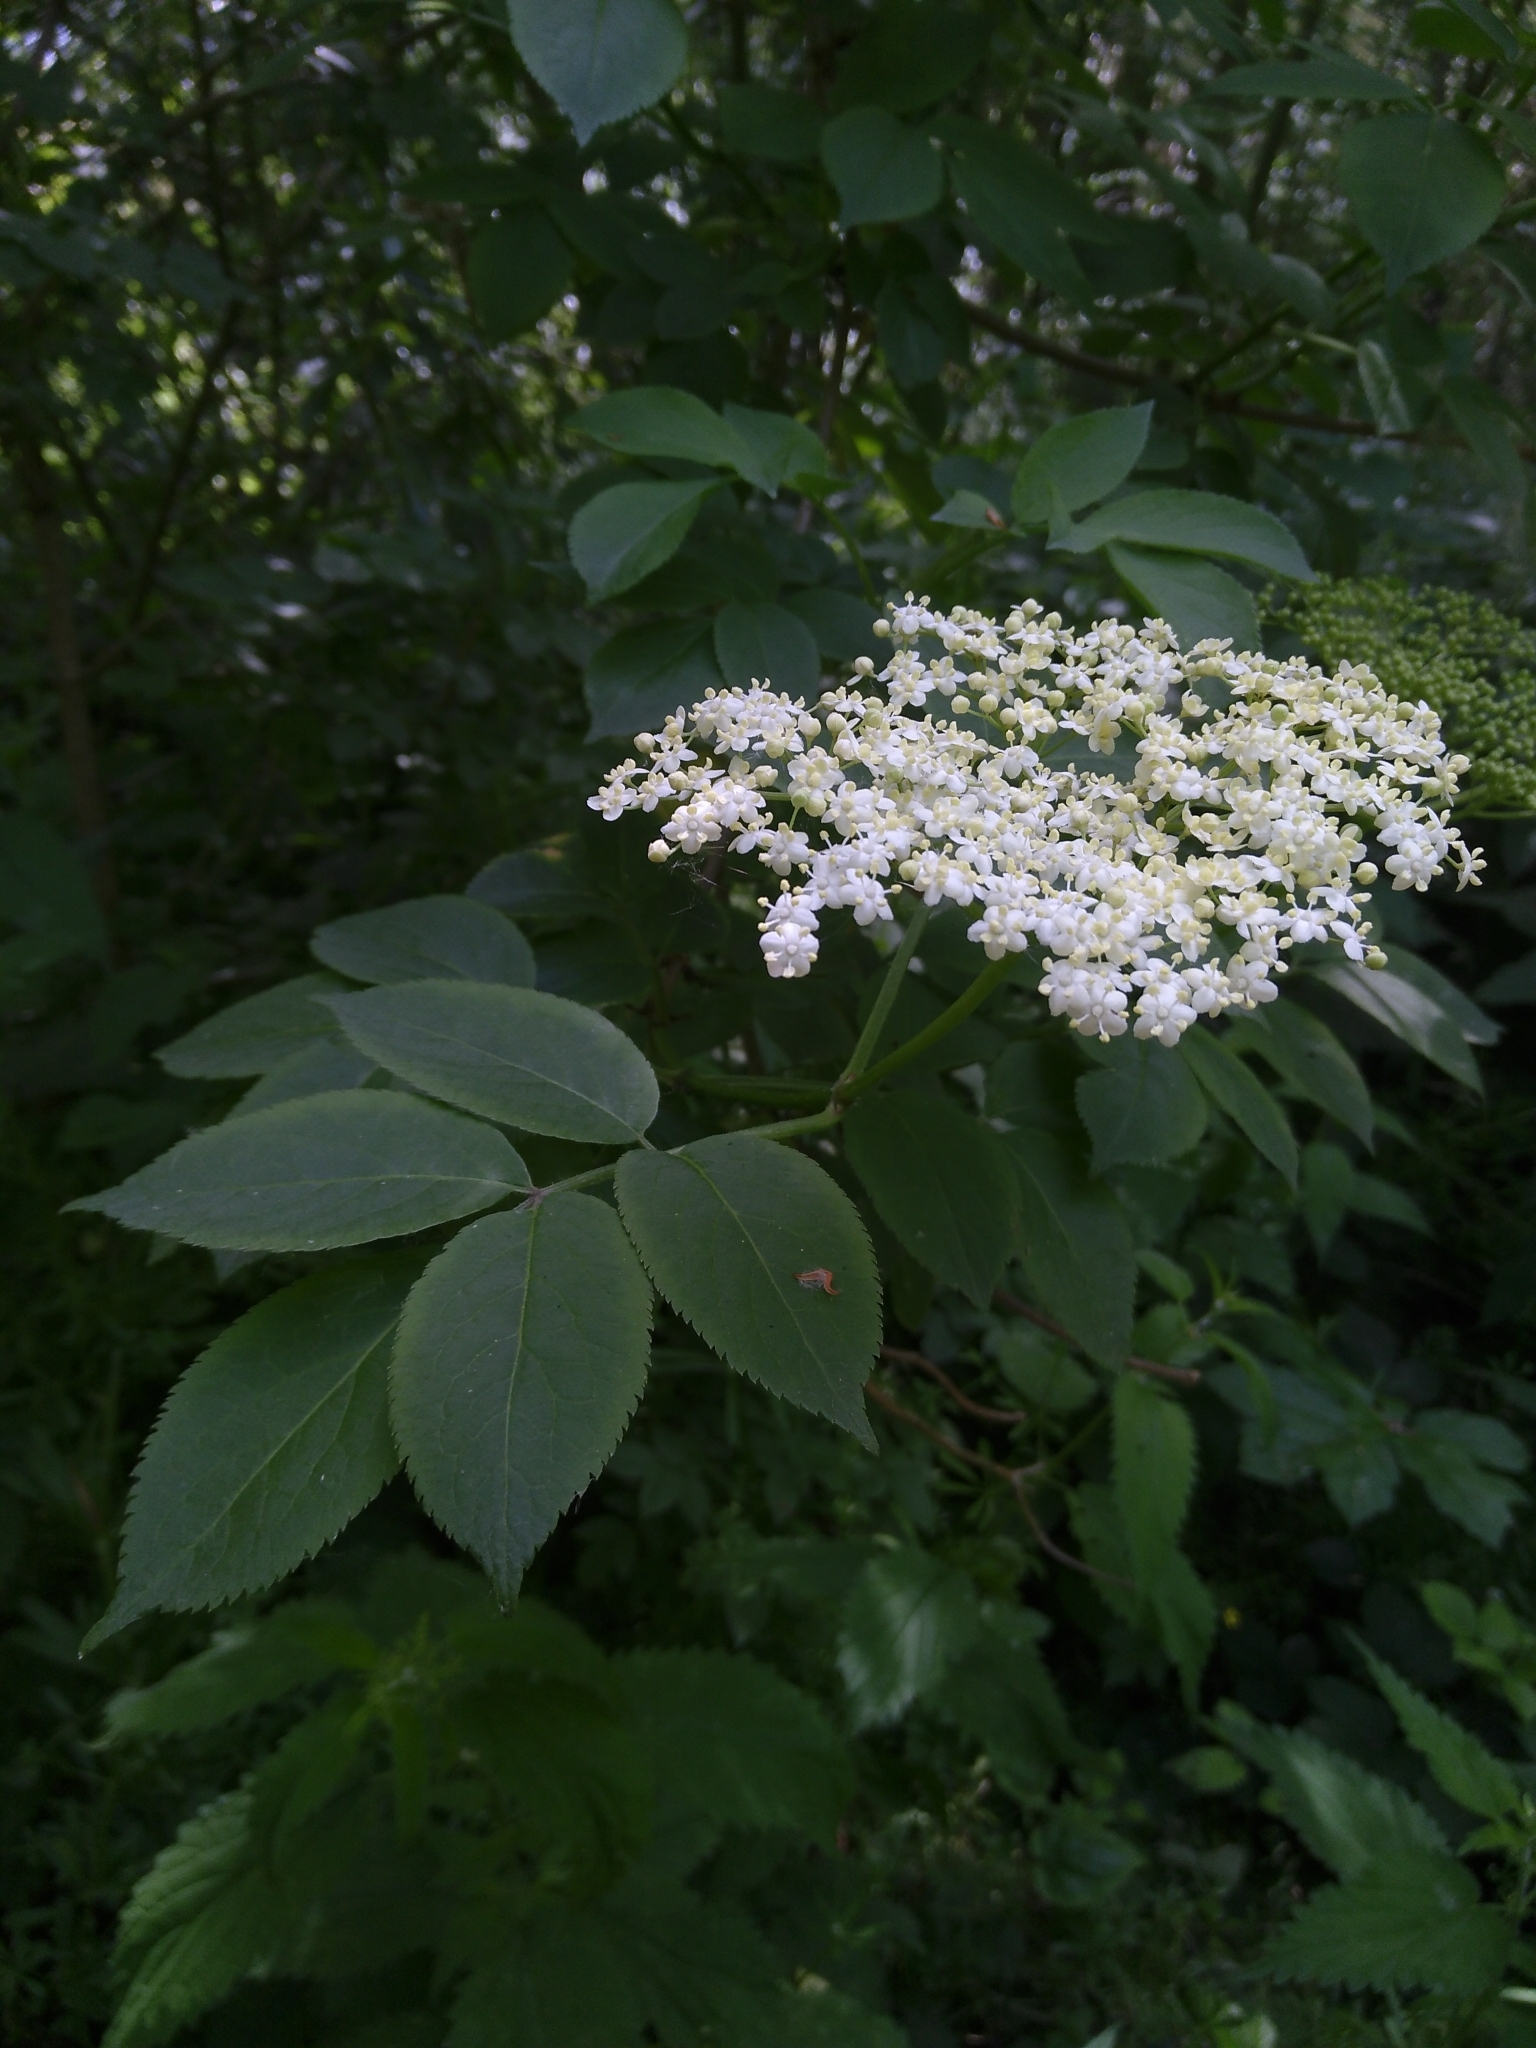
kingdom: Plantae
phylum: Tracheophyta
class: Magnoliopsida
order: Dipsacales
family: Viburnaceae
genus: Sambucus
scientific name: Sambucus nigra
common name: Elder
